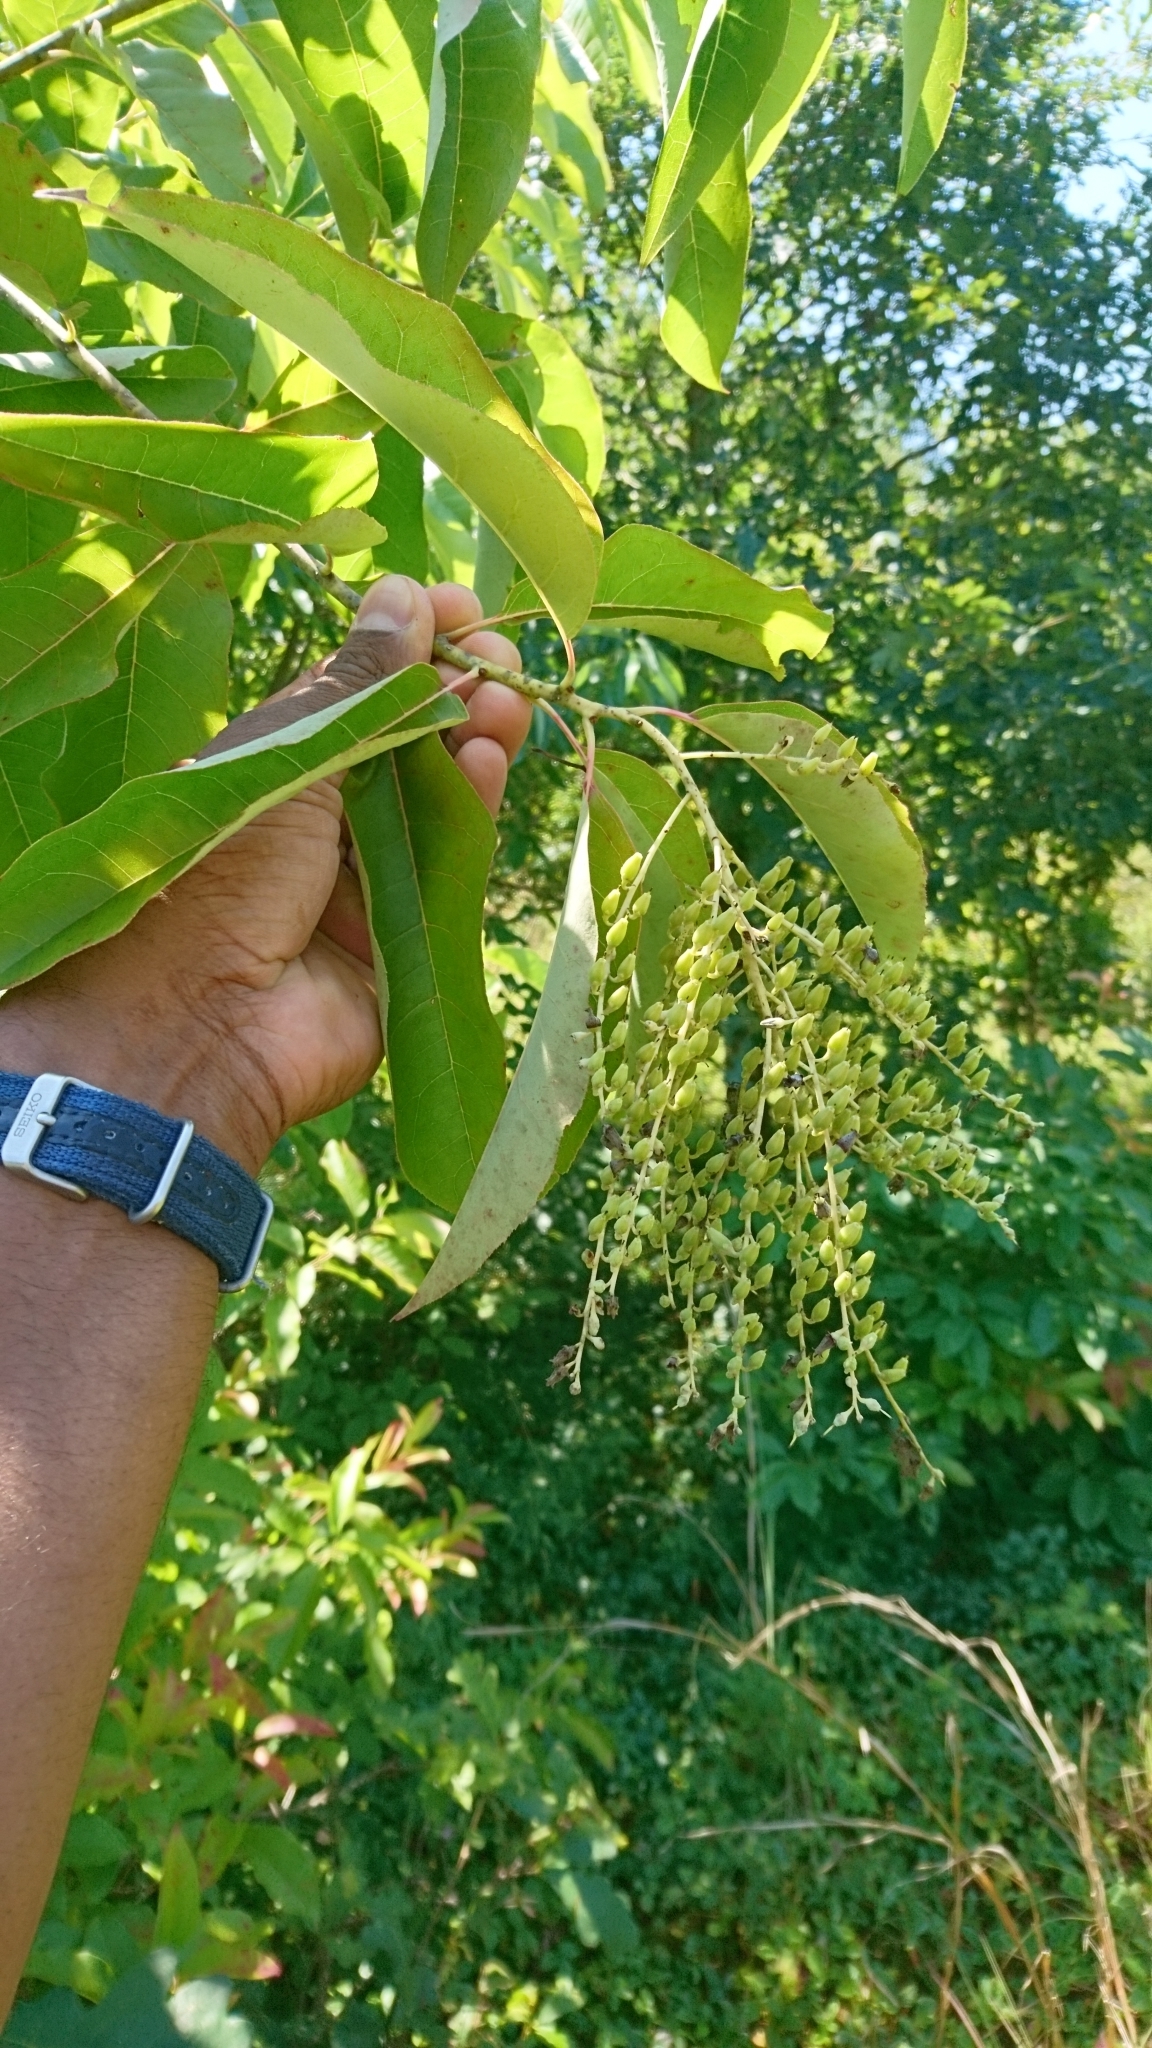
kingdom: Plantae
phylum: Tracheophyta
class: Magnoliopsida
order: Ericales
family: Ericaceae
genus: Oxydendrum
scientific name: Oxydendrum arboreum
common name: Sourwood
